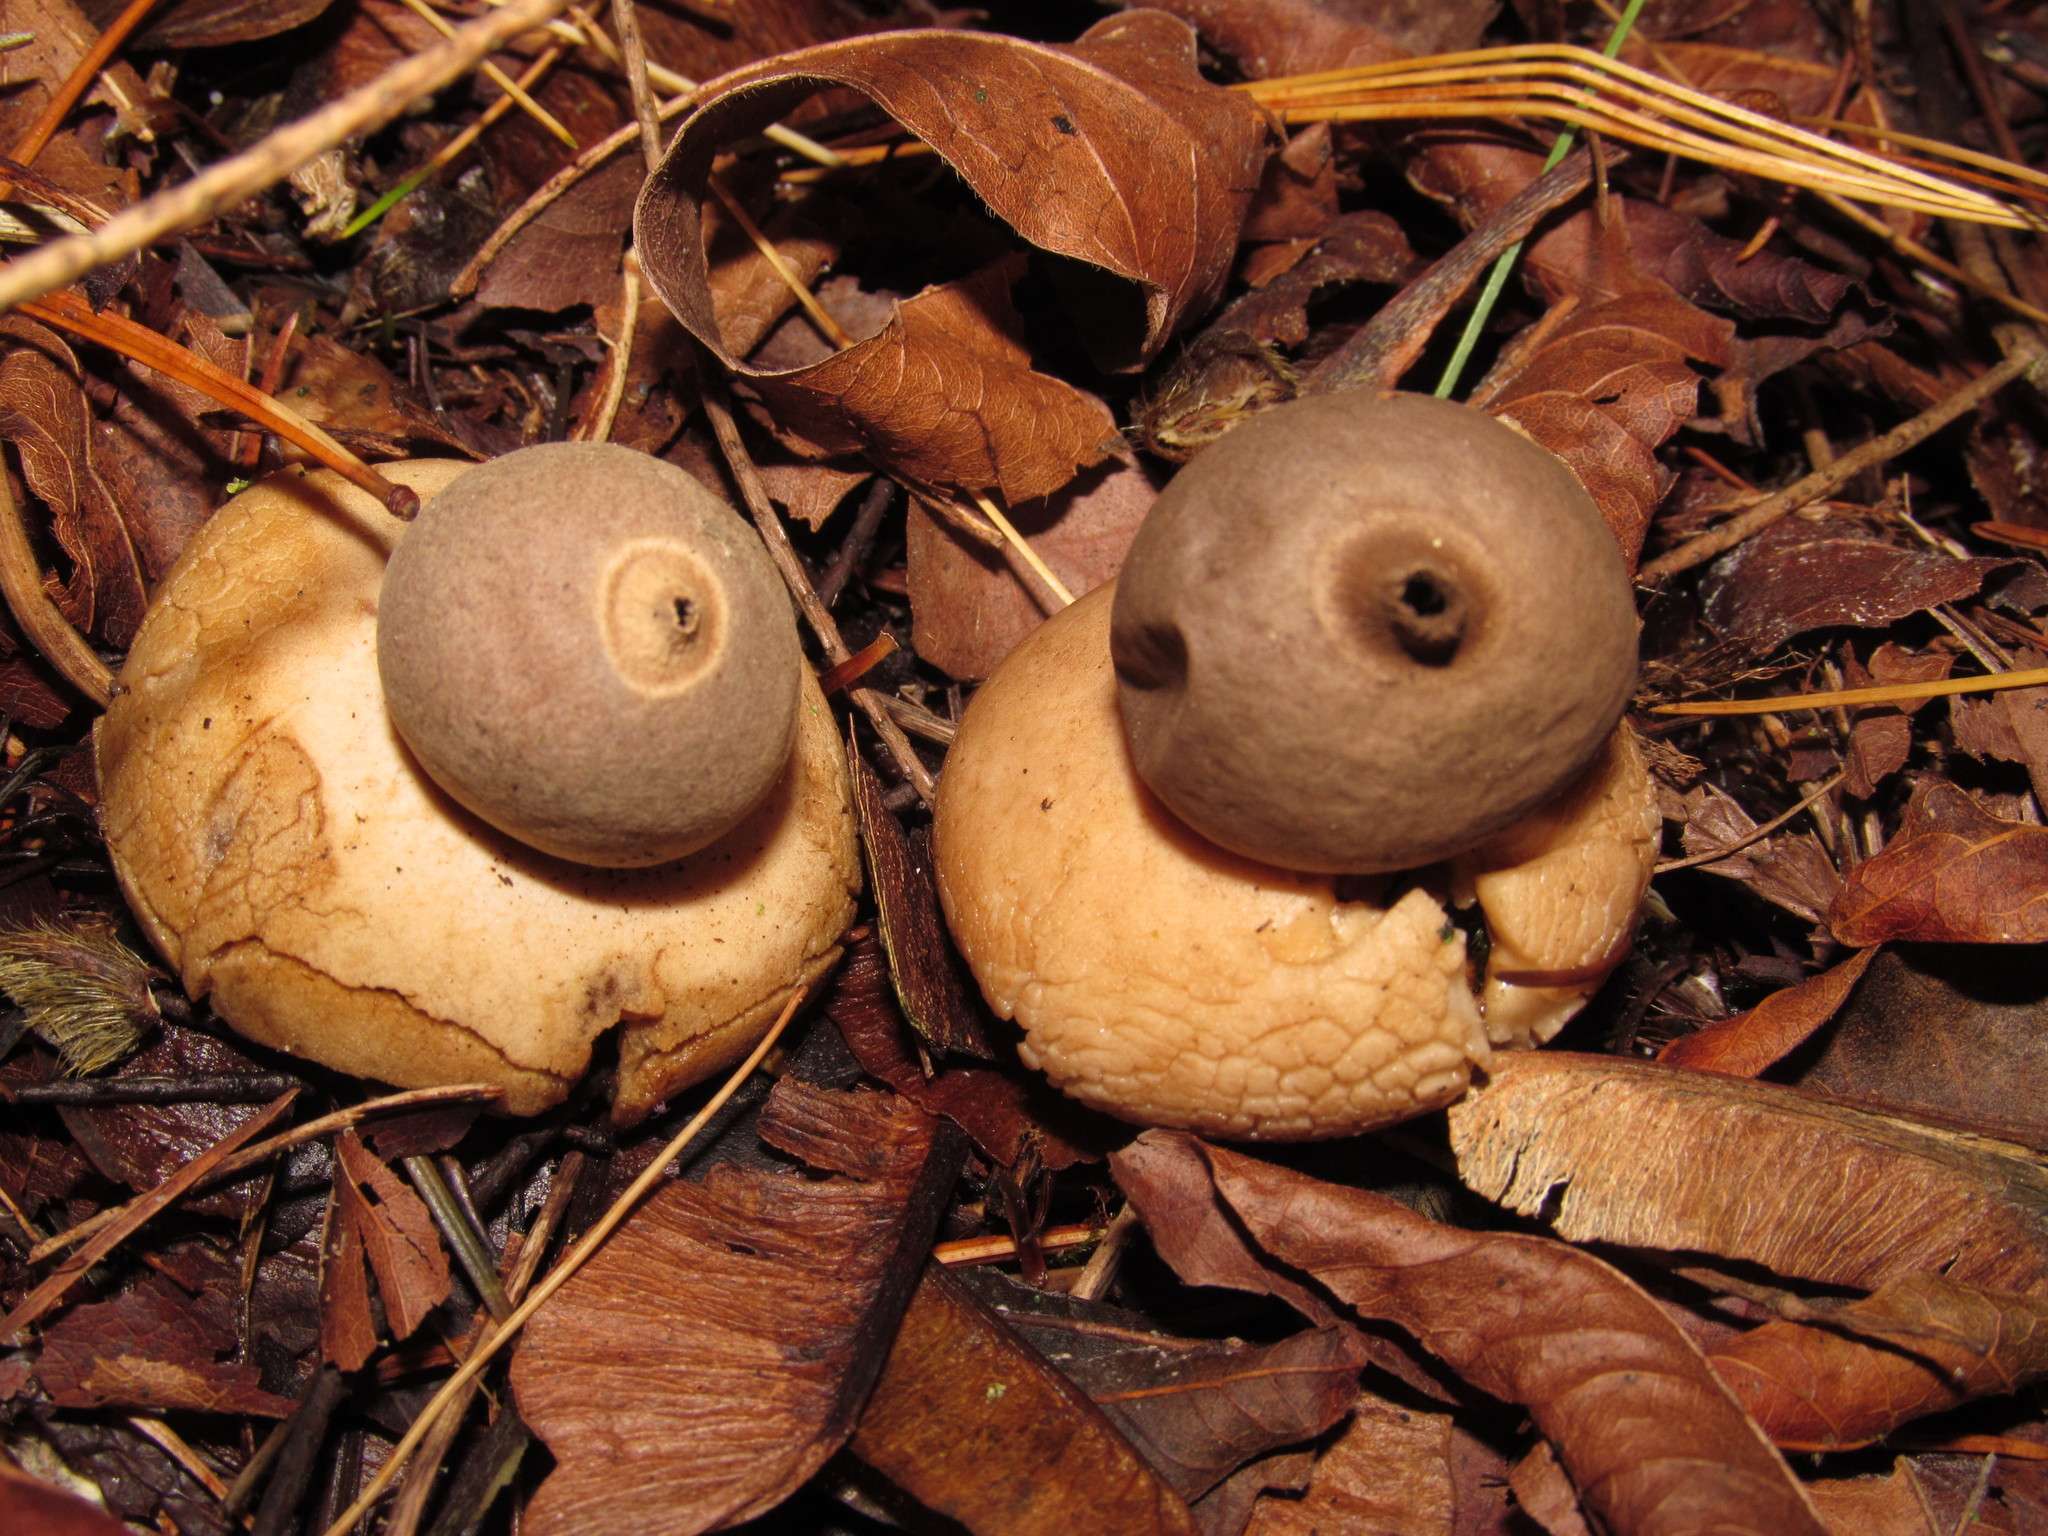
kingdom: Fungi
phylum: Basidiomycota
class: Agaricomycetes
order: Geastrales
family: Geastraceae
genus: Geastrum
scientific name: Geastrum saccatum
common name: Rounded earthstar
